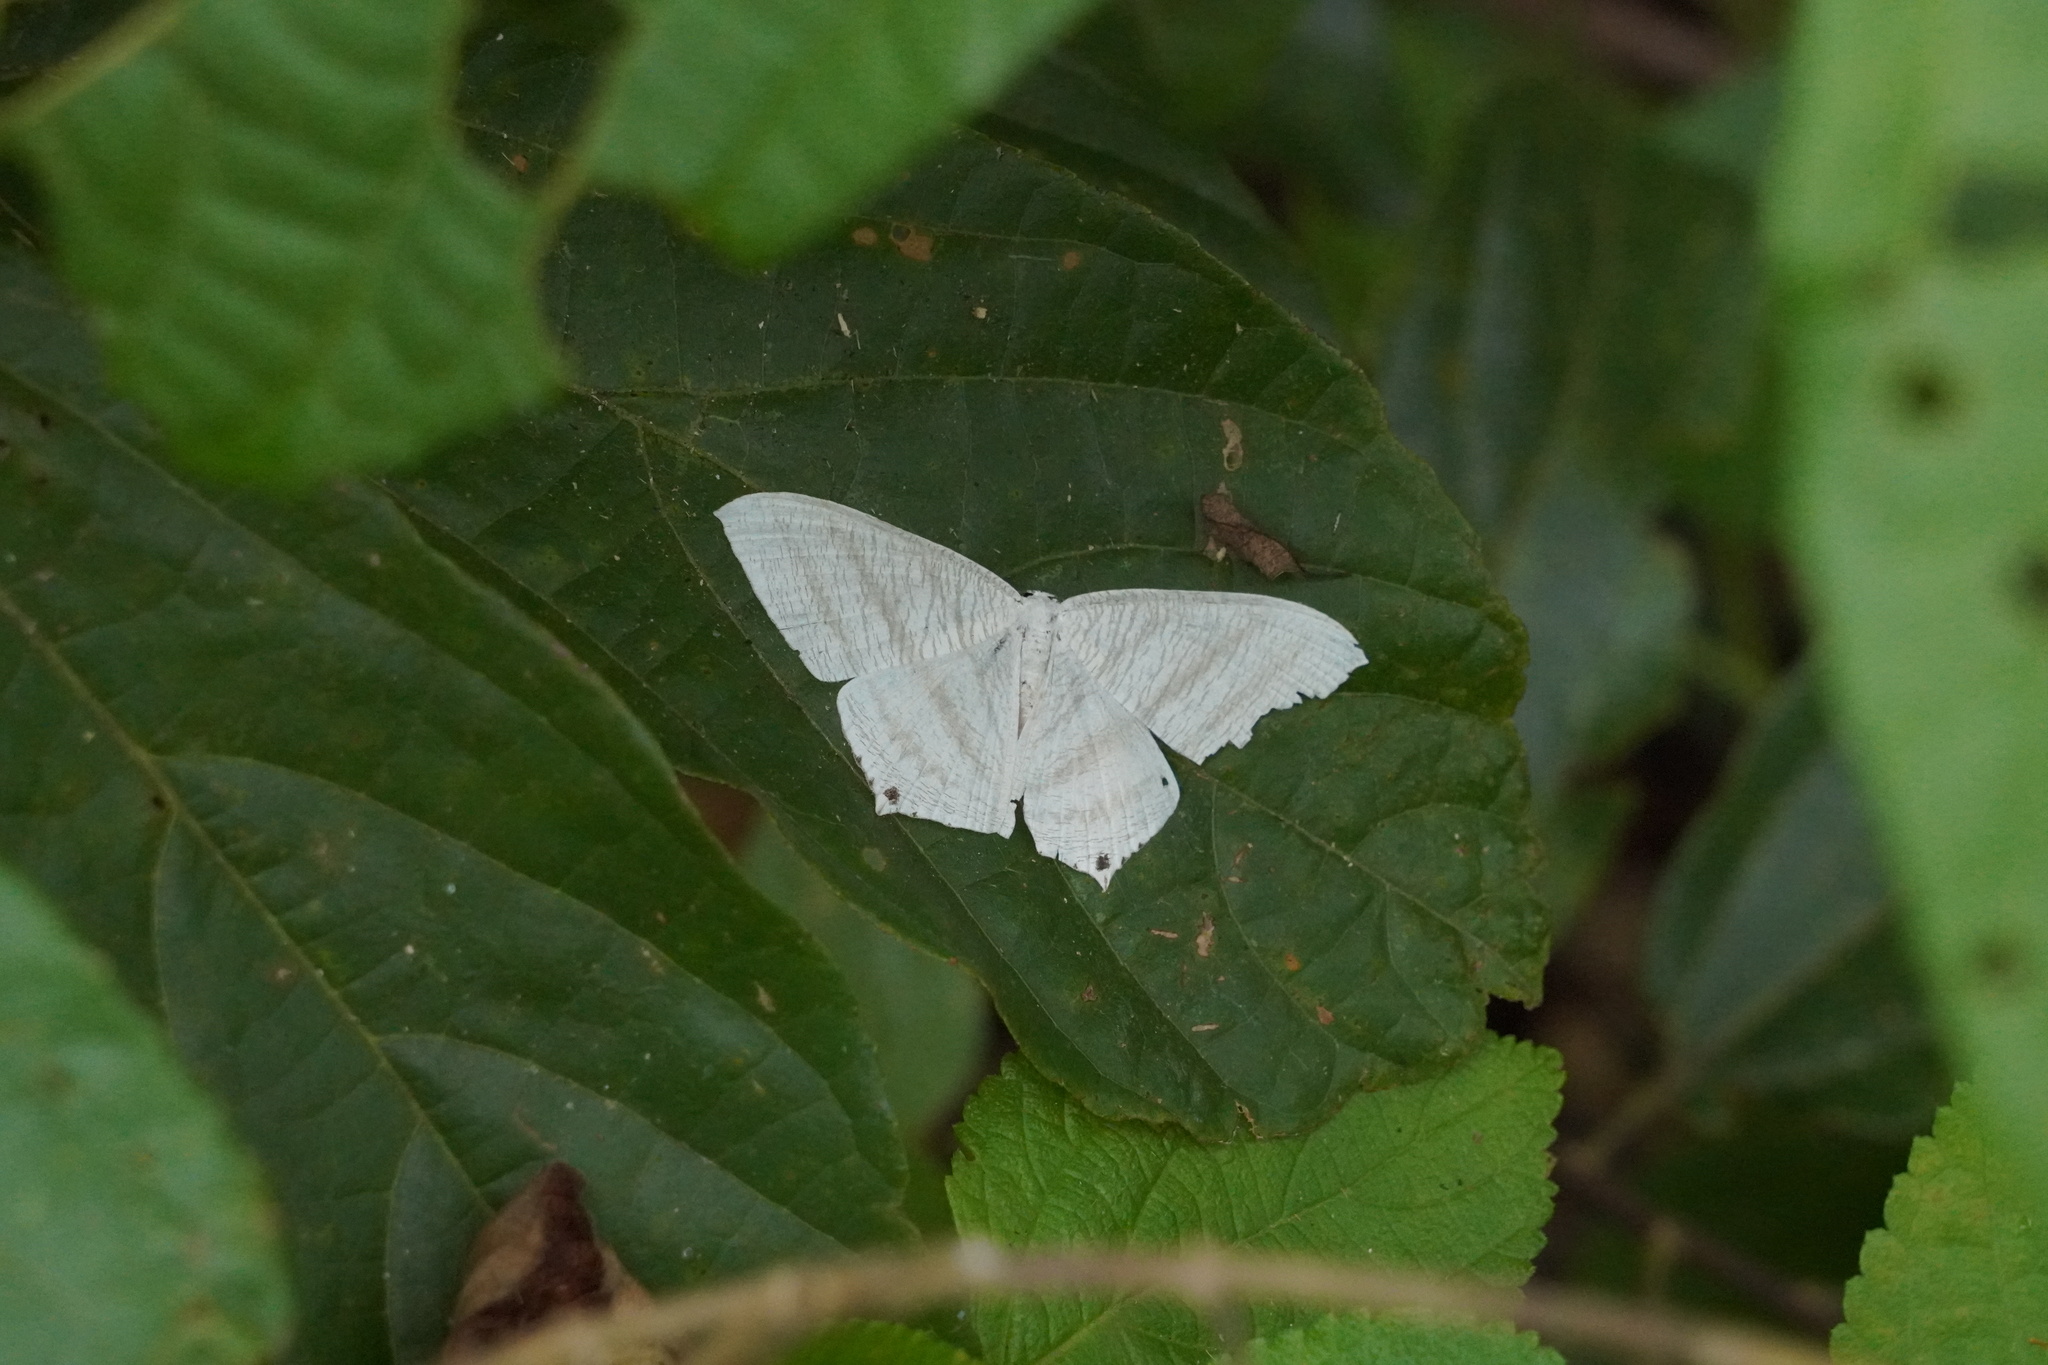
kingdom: Animalia
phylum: Arthropoda
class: Insecta
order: Lepidoptera
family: Uraniidae
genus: Micronia
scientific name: Micronia aculeata
